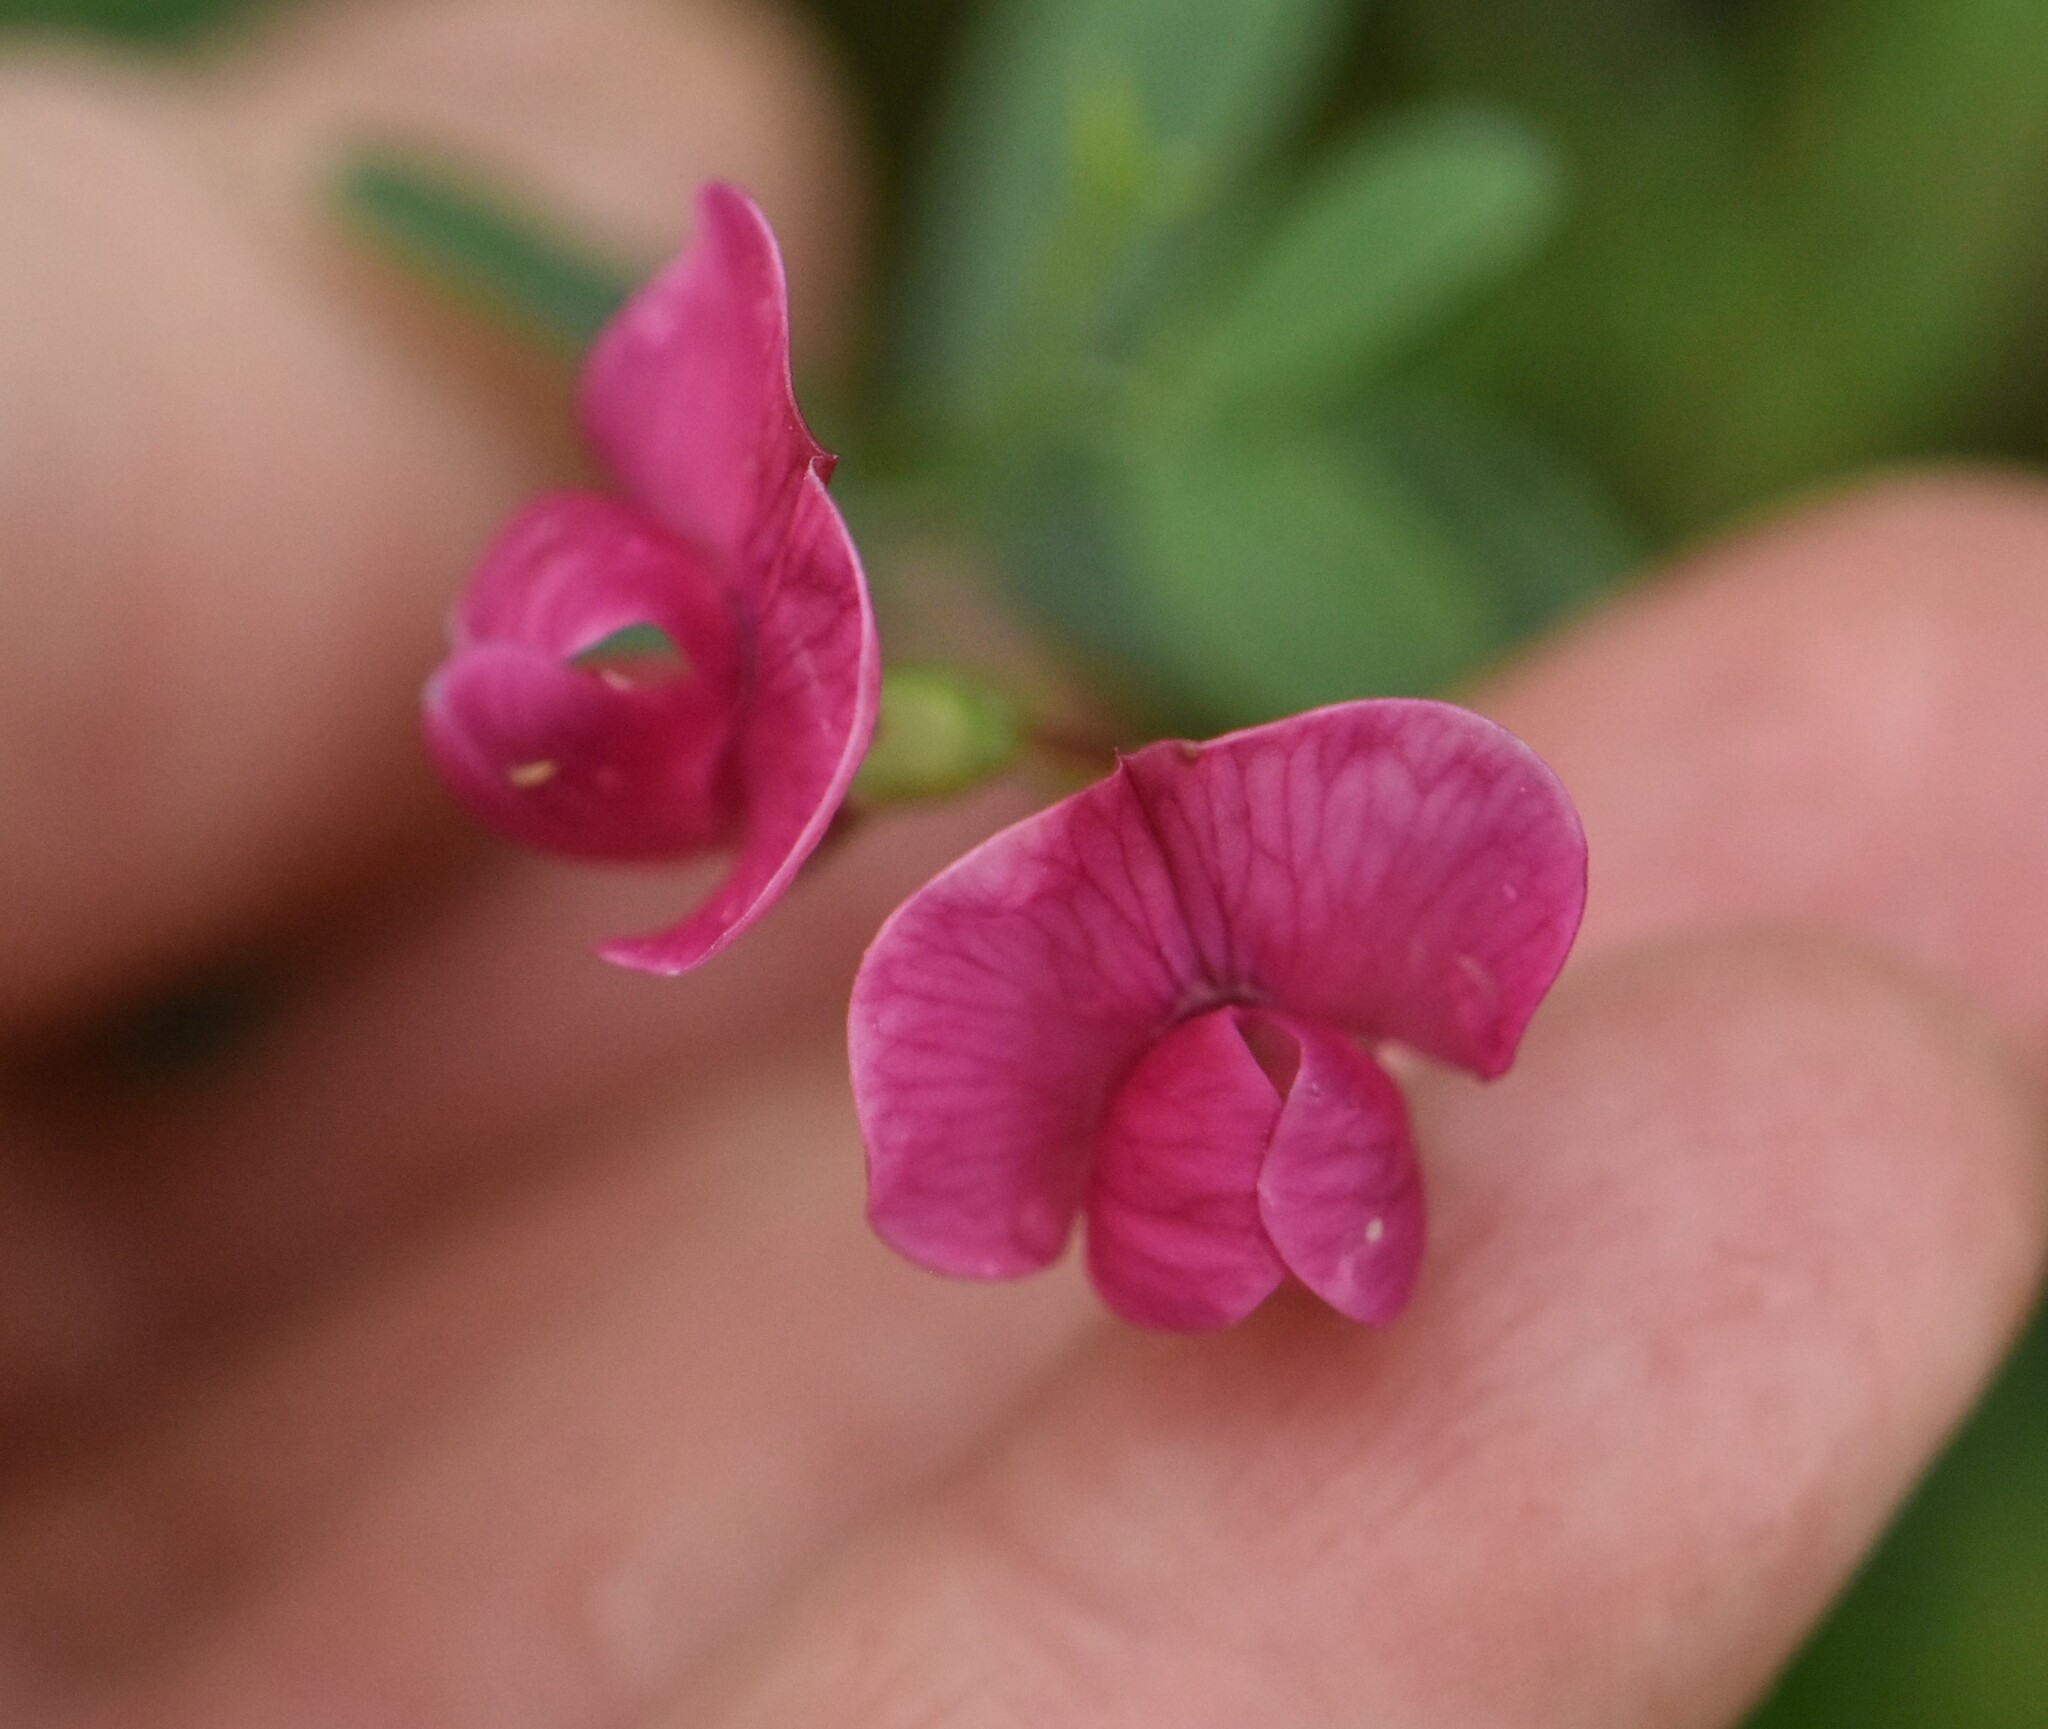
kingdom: Plantae
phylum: Tracheophyta
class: Magnoliopsida
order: Fabales
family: Fabaceae
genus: Lathyrus
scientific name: Lathyrus tuberosus
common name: Tuberous pea
